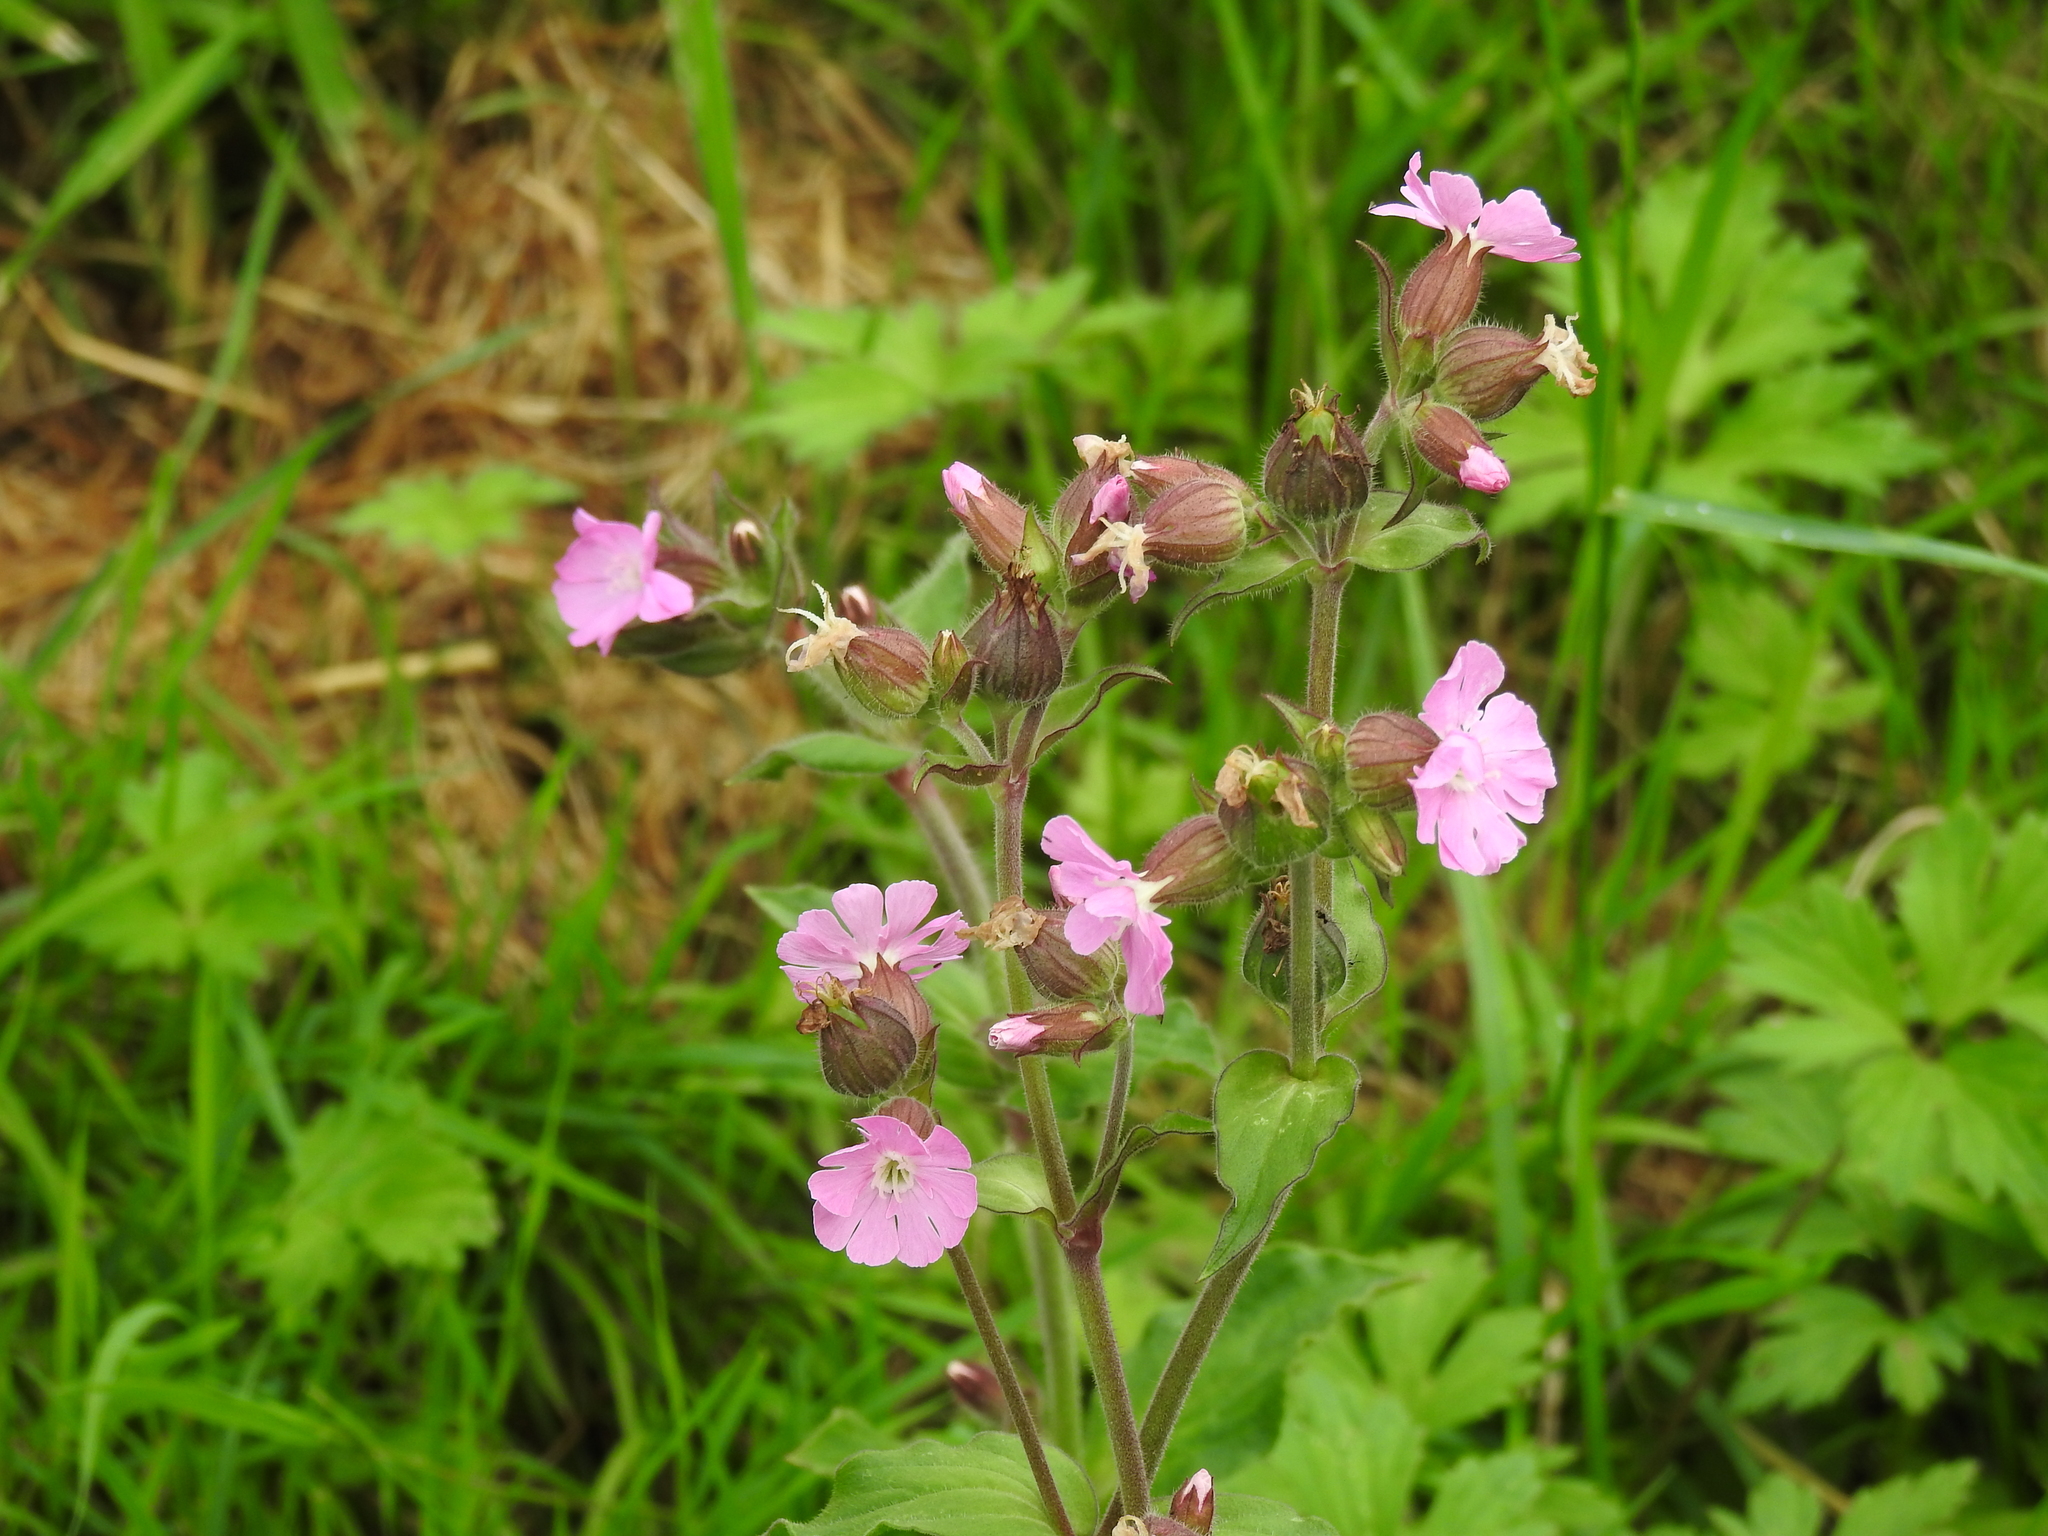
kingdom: Plantae
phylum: Tracheophyta
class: Magnoliopsida
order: Caryophyllales
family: Caryophyllaceae
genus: Silene
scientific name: Silene dioica
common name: Red campion
